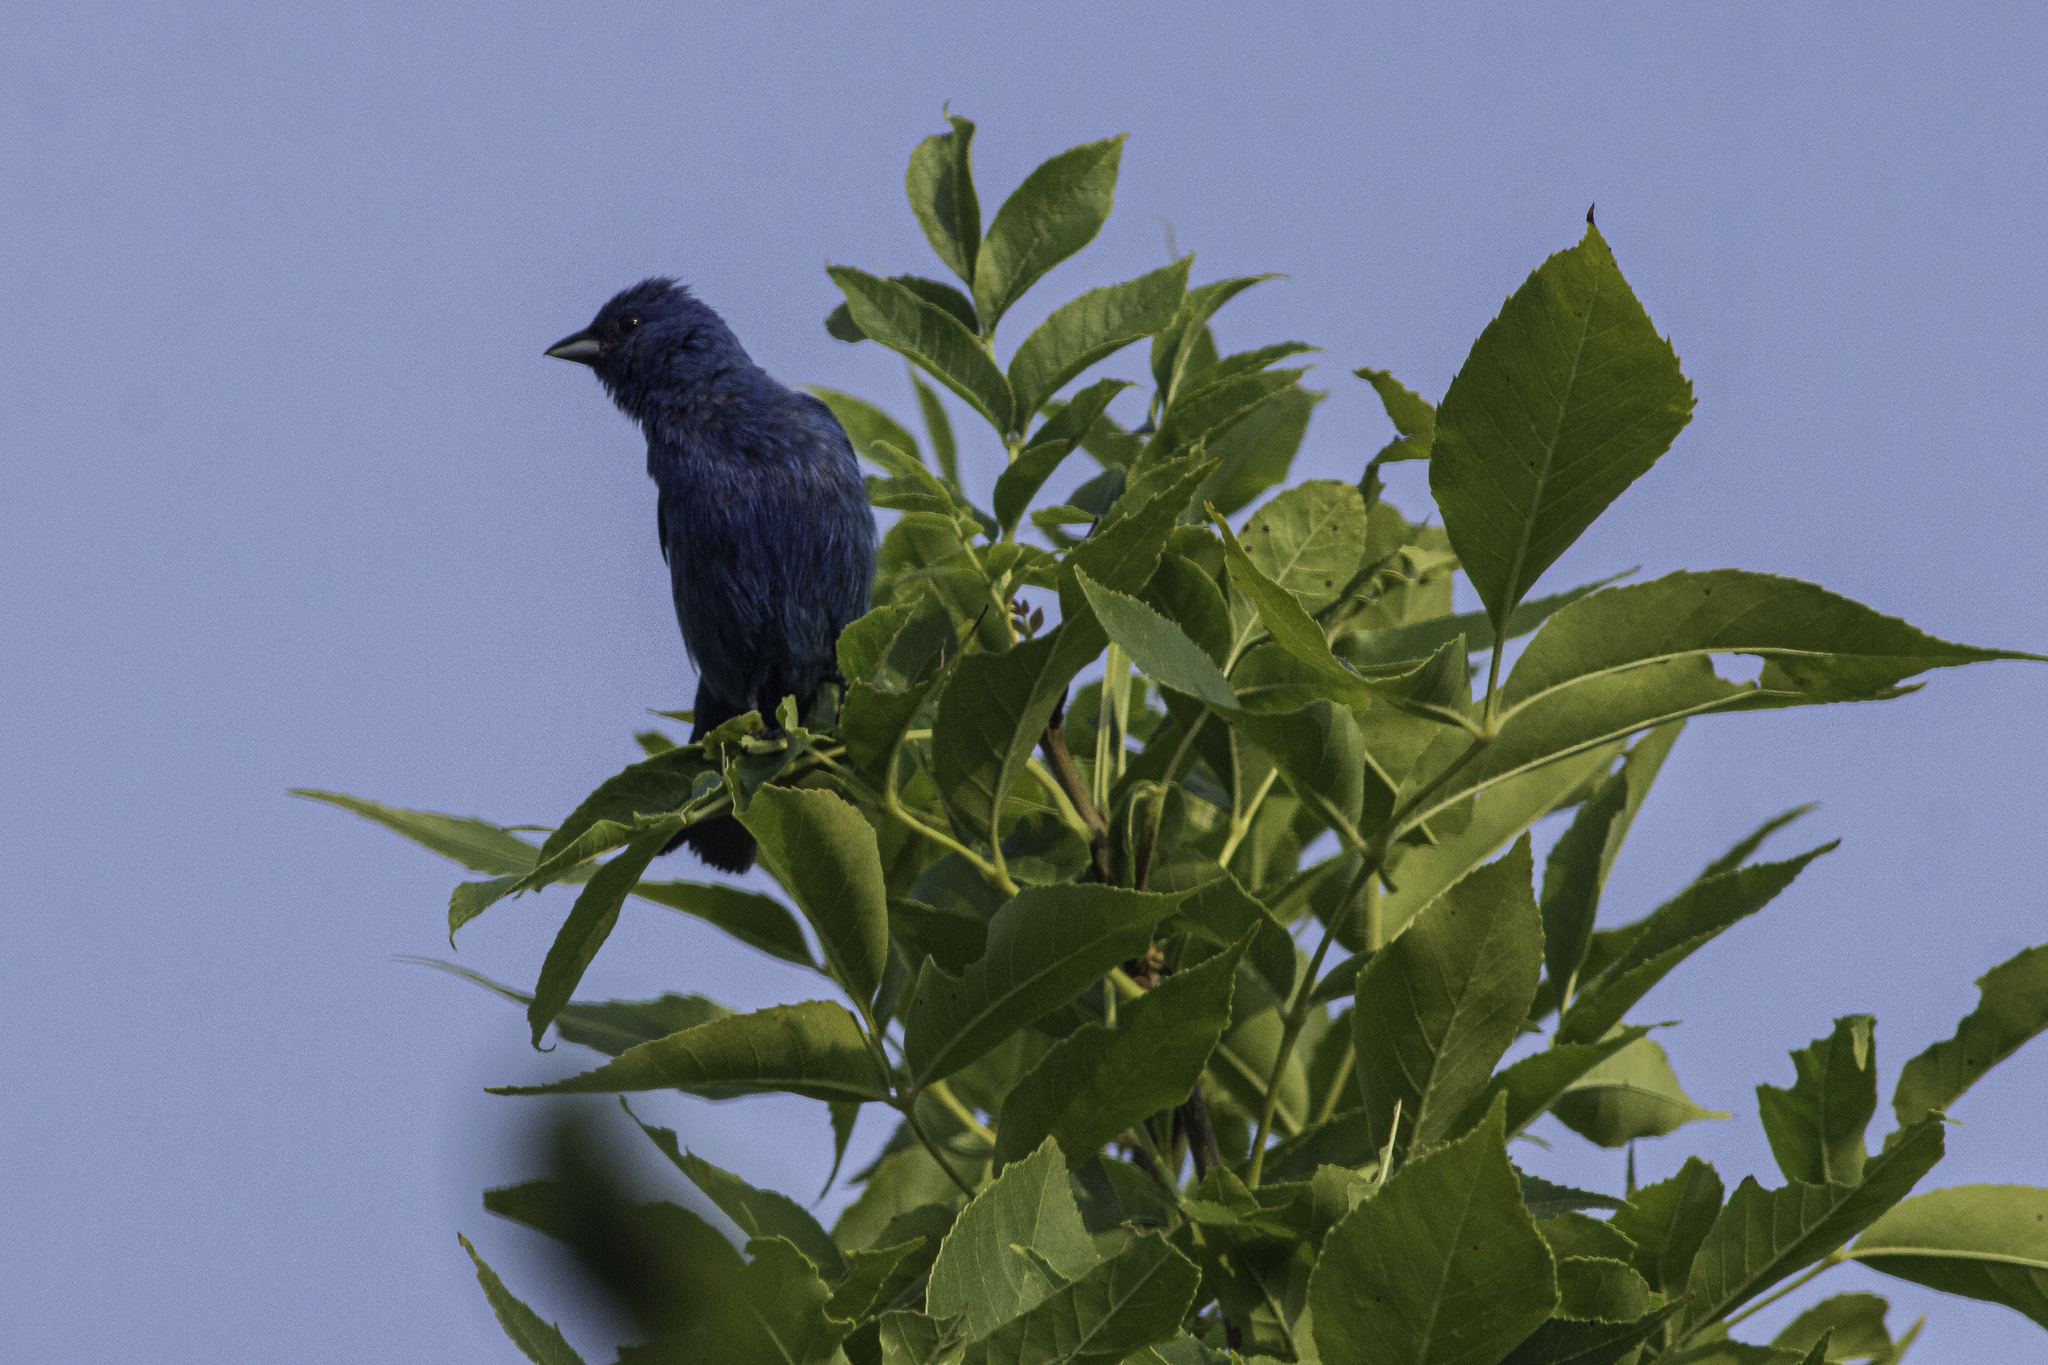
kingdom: Animalia
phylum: Chordata
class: Aves
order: Passeriformes
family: Cardinalidae
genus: Passerina
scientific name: Passerina cyanea
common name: Indigo bunting
